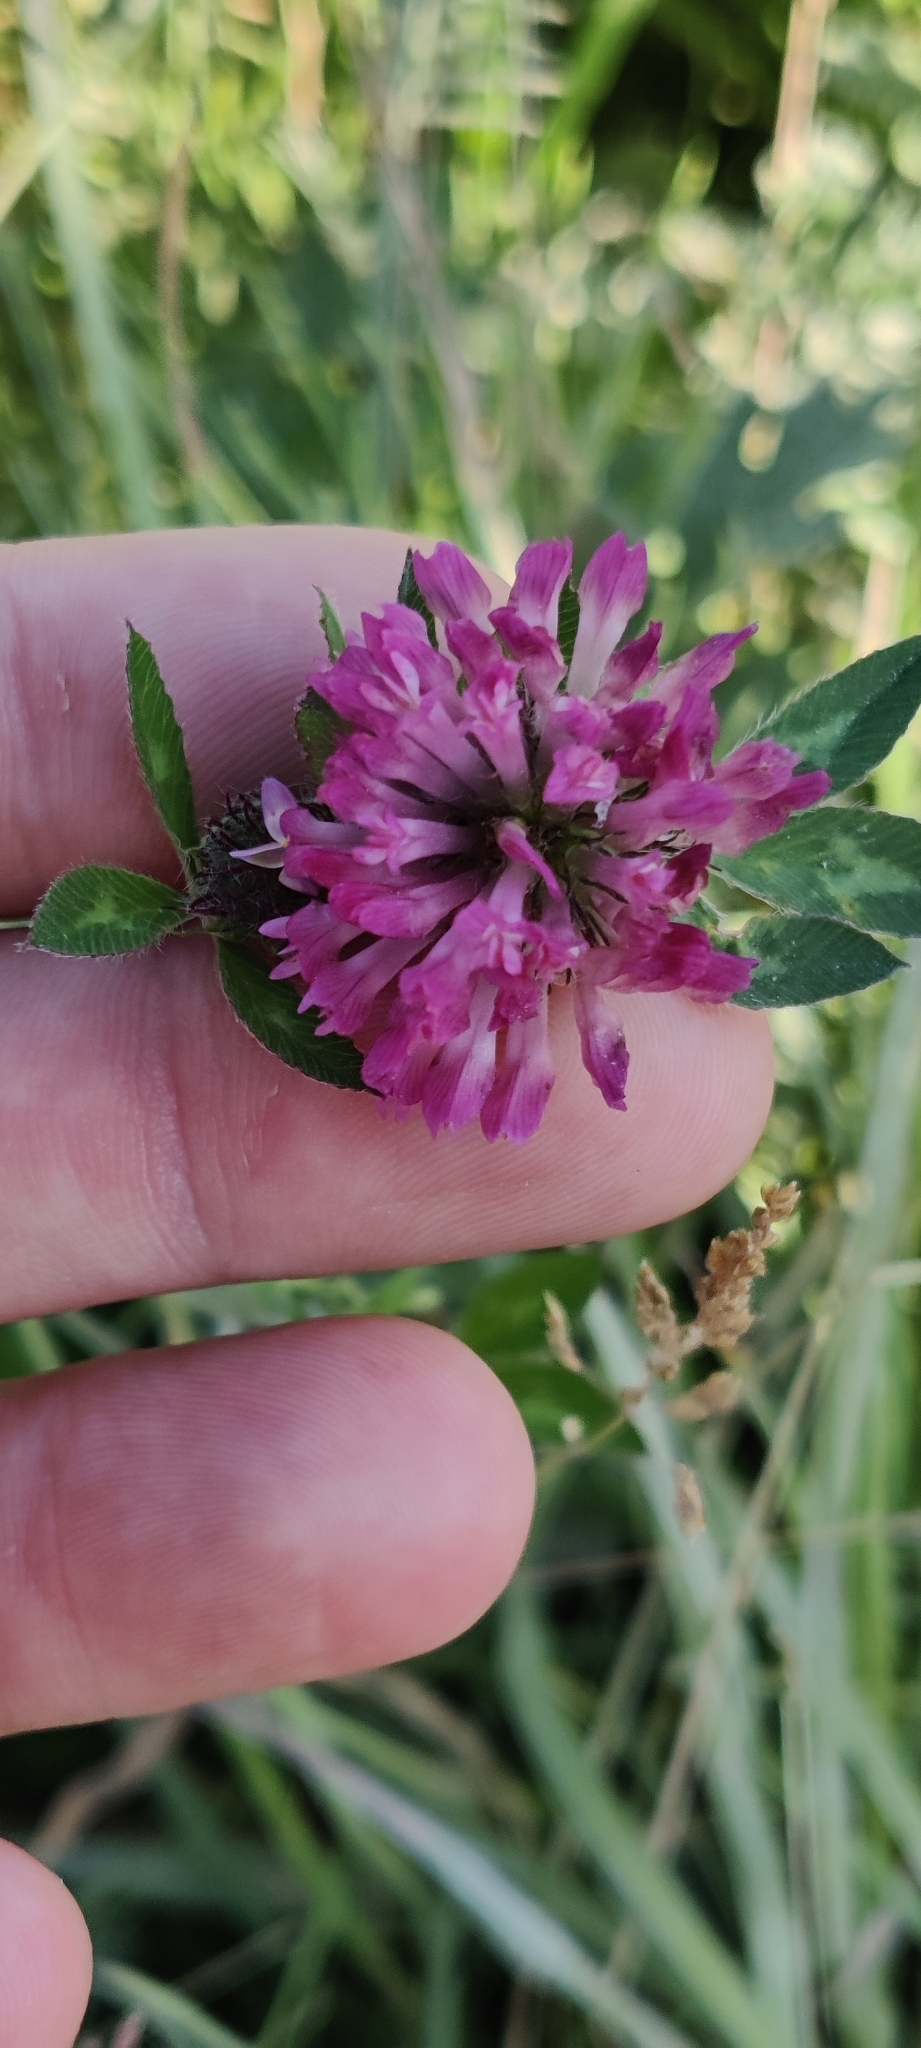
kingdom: Plantae
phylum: Tracheophyta
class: Magnoliopsida
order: Fabales
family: Fabaceae
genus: Trifolium
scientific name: Trifolium pratense
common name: Red clover
